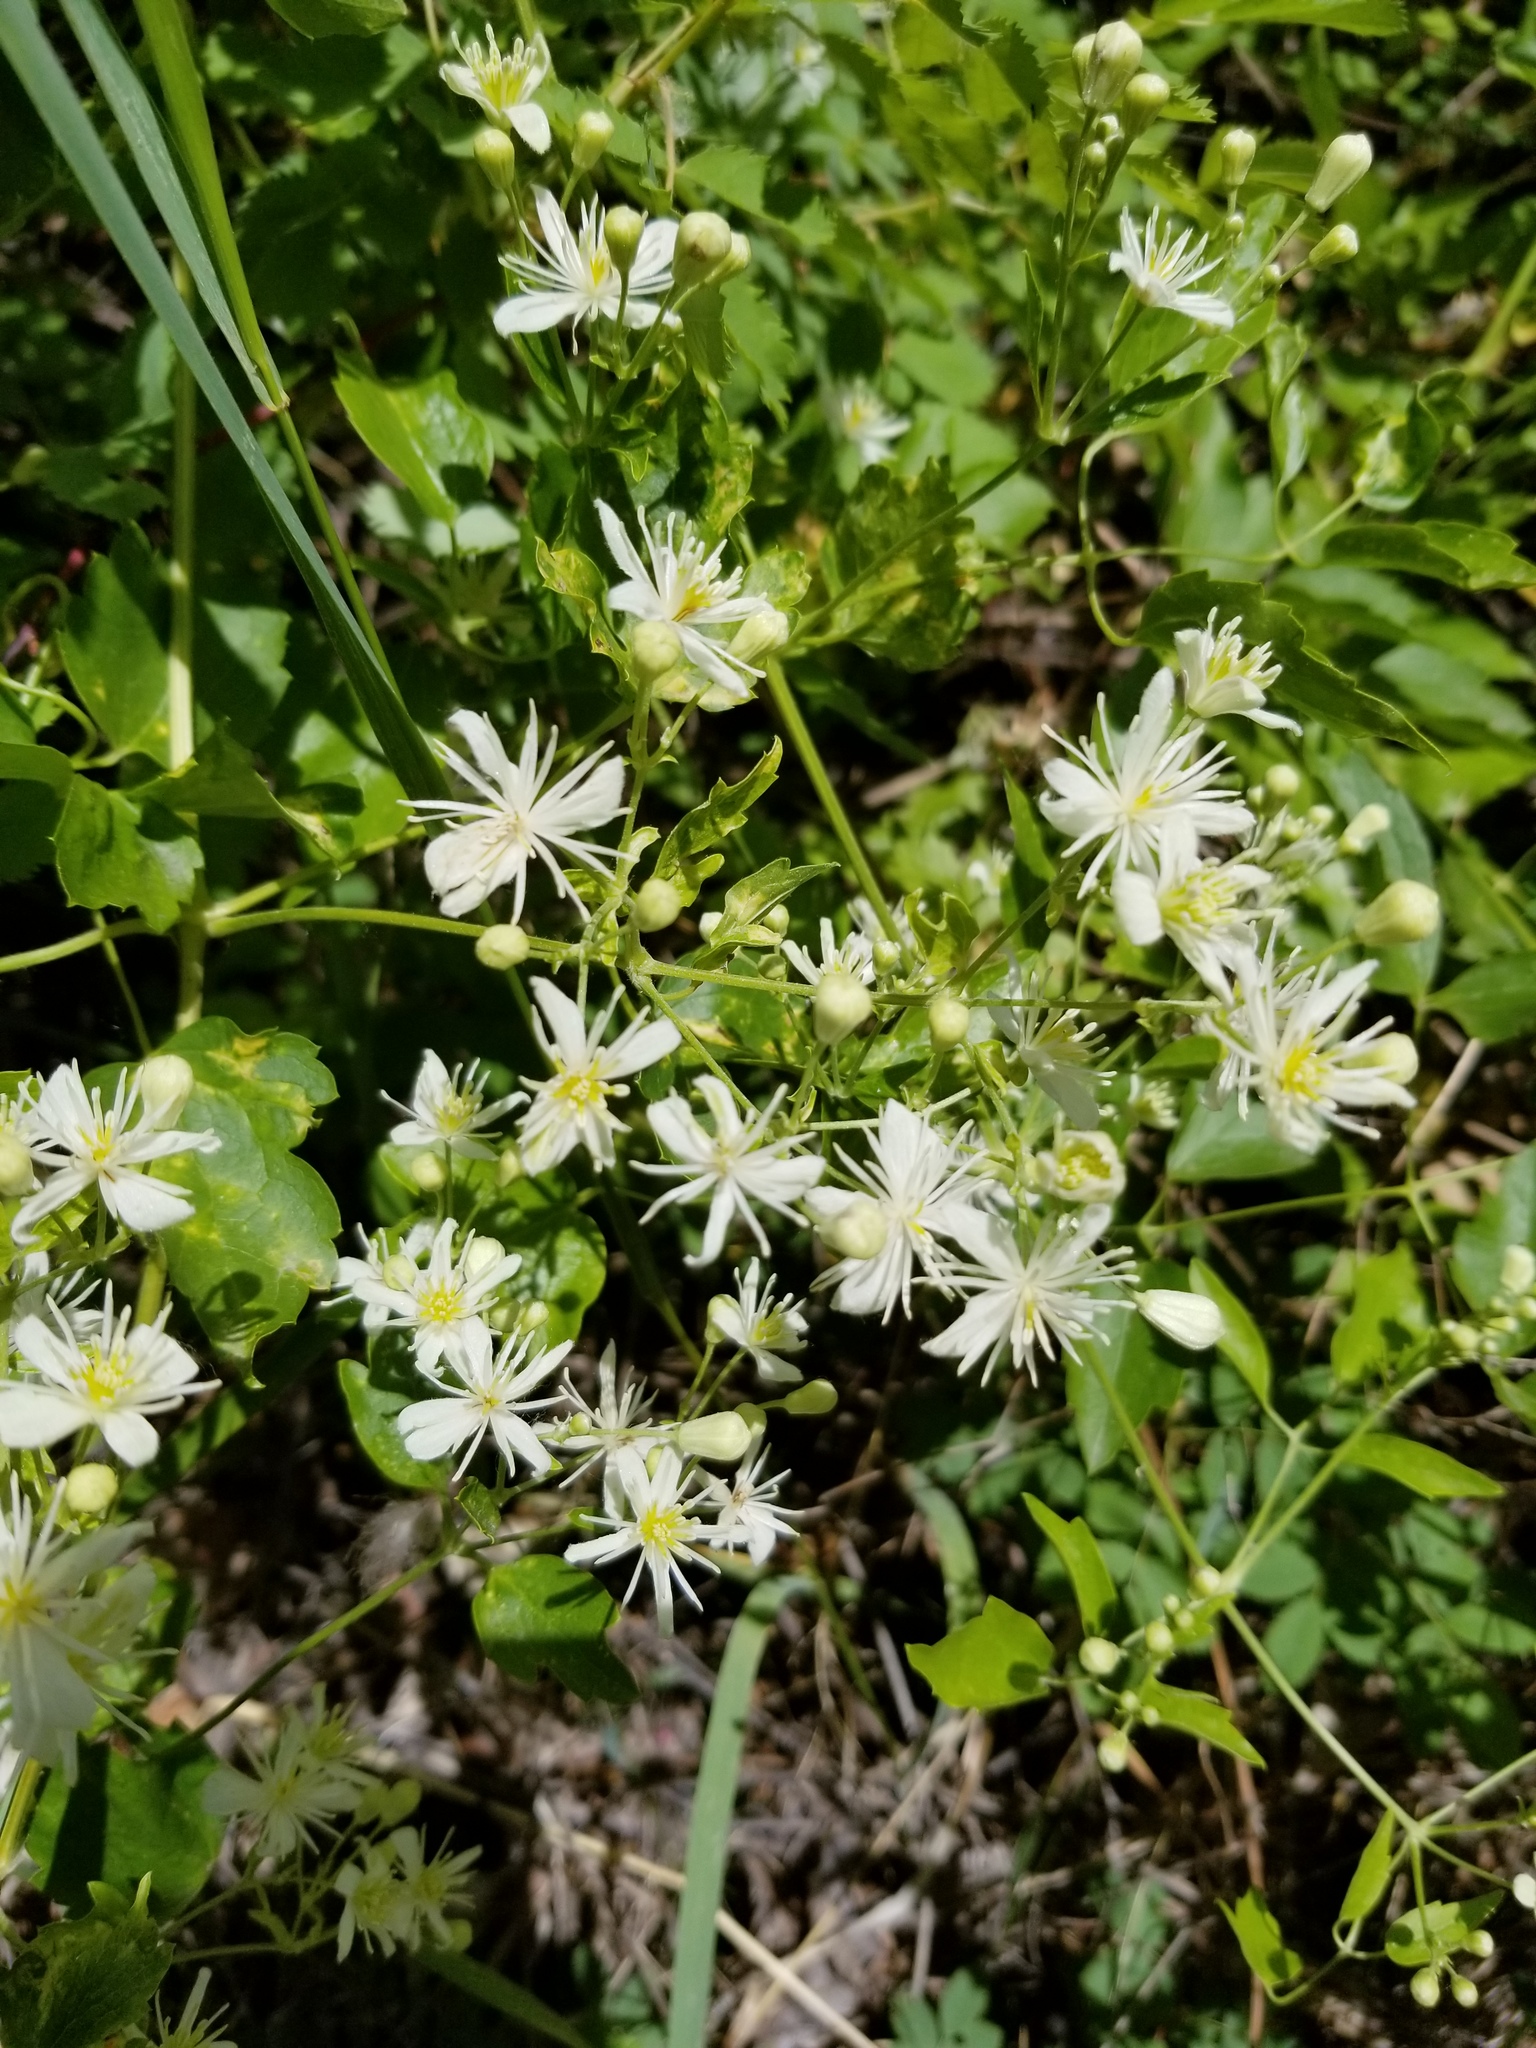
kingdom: Plantae
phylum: Tracheophyta
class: Magnoliopsida
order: Ranunculales
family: Ranunculaceae
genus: Clematis
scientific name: Clematis ligusticifolia
